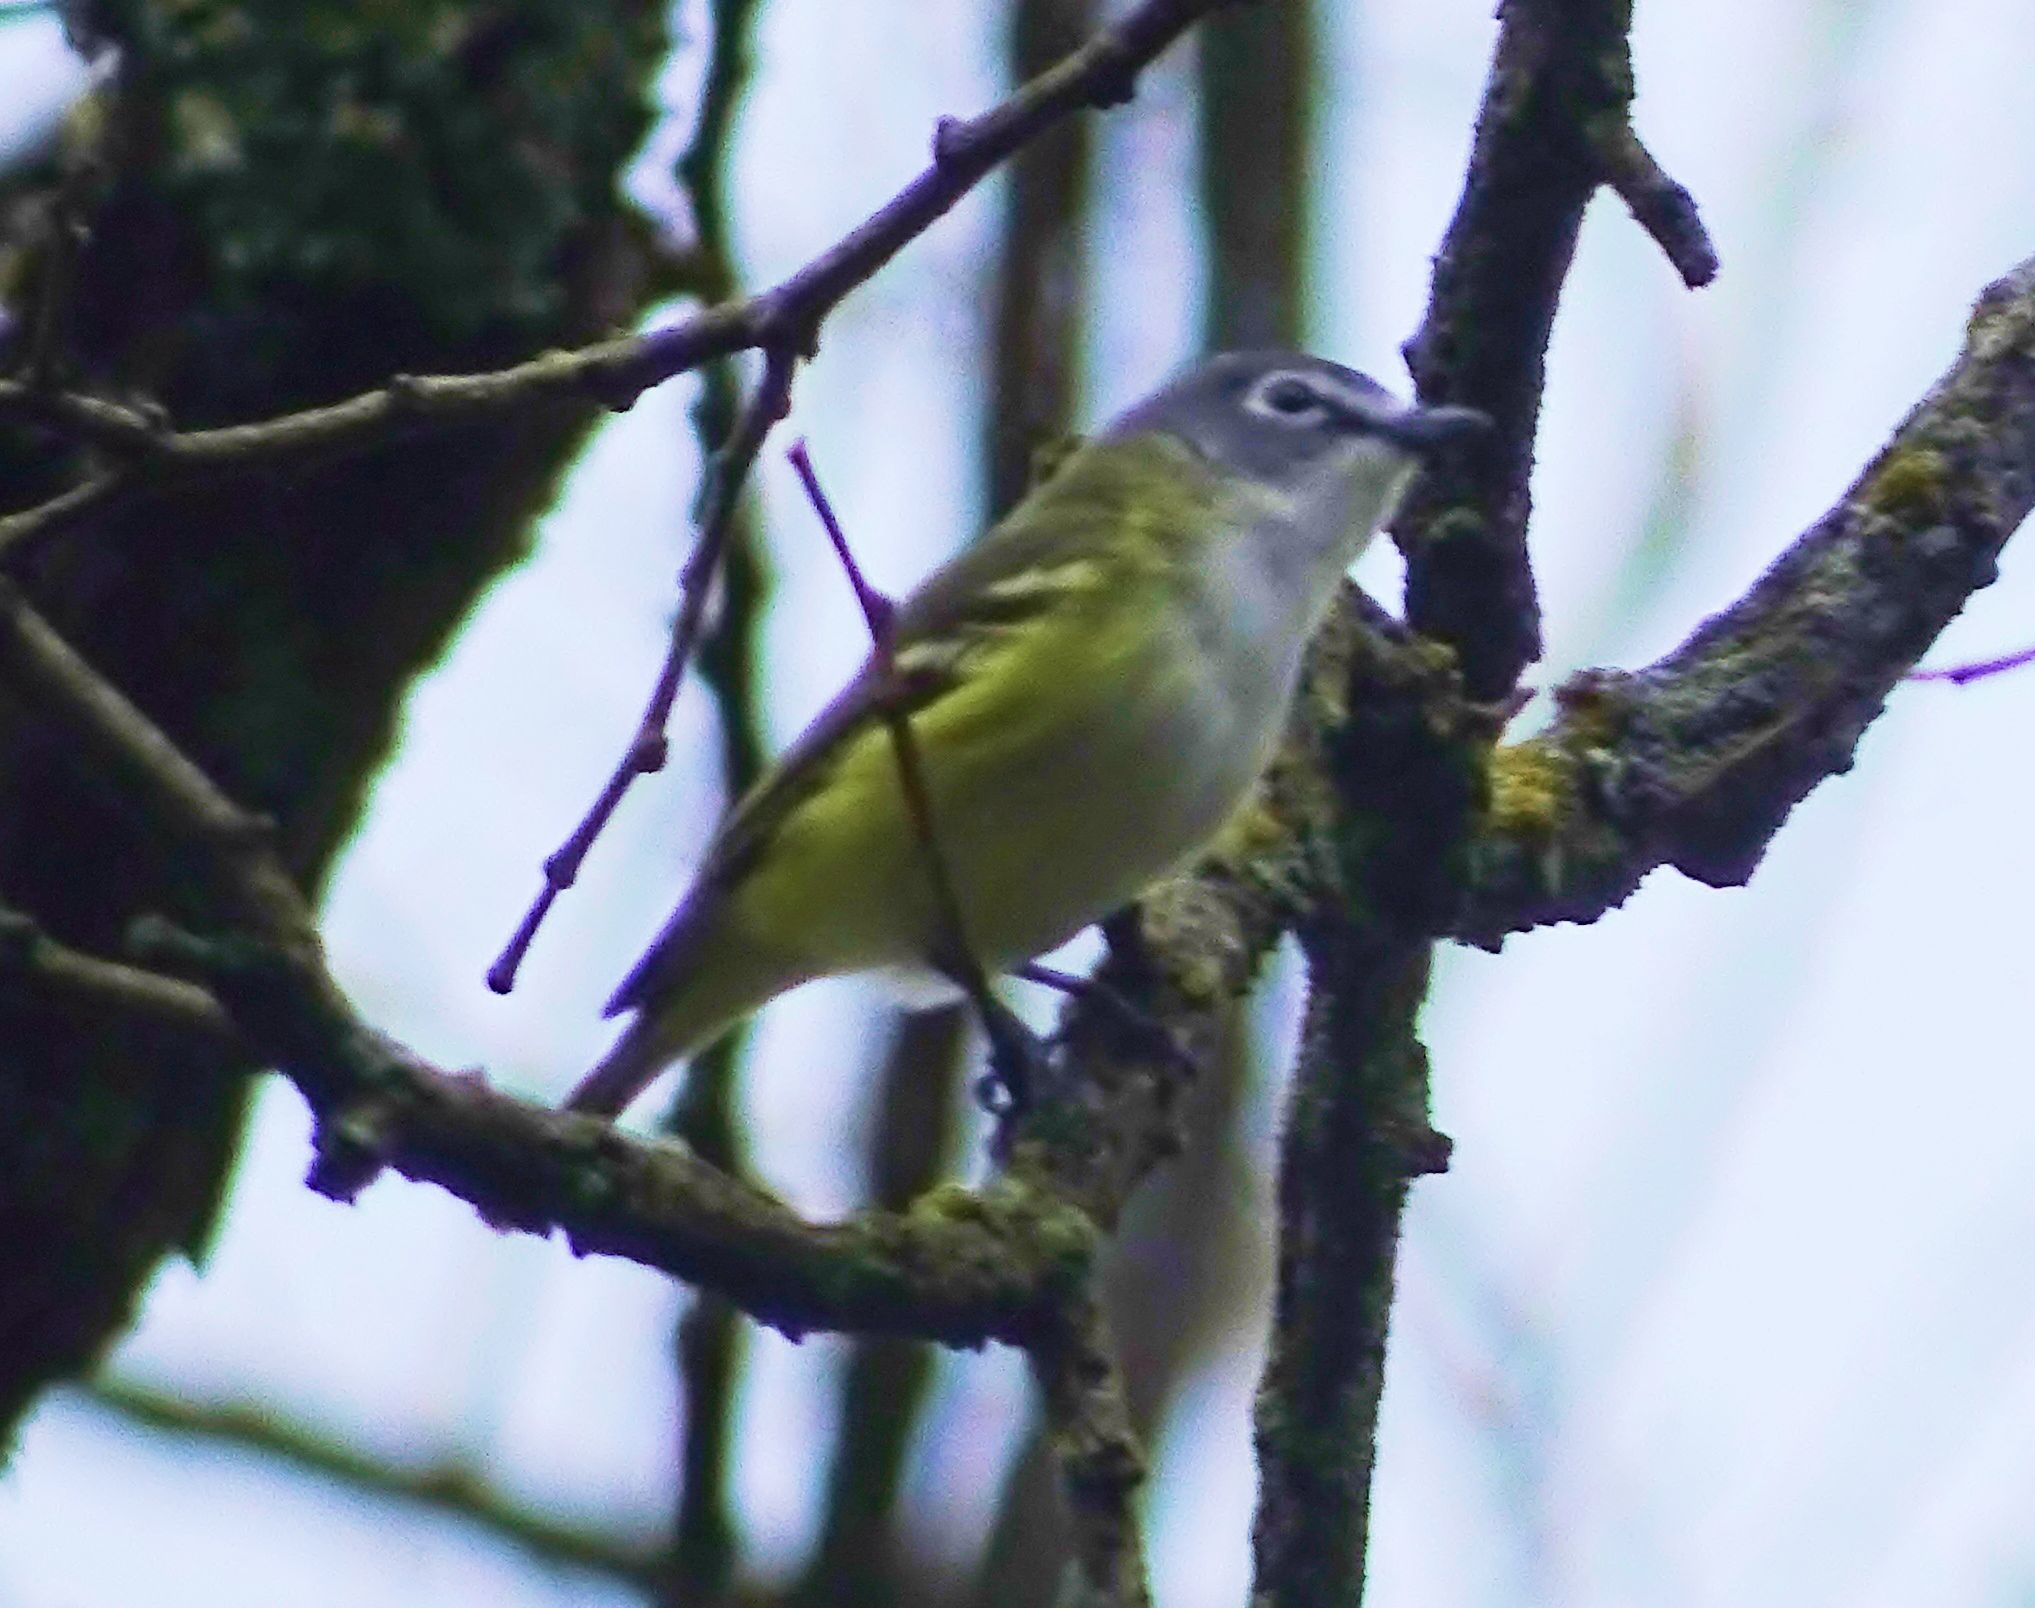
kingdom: Animalia
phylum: Chordata
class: Aves
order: Passeriformes
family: Vireonidae
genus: Vireo
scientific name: Vireo solitarius
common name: Blue-headed vireo
